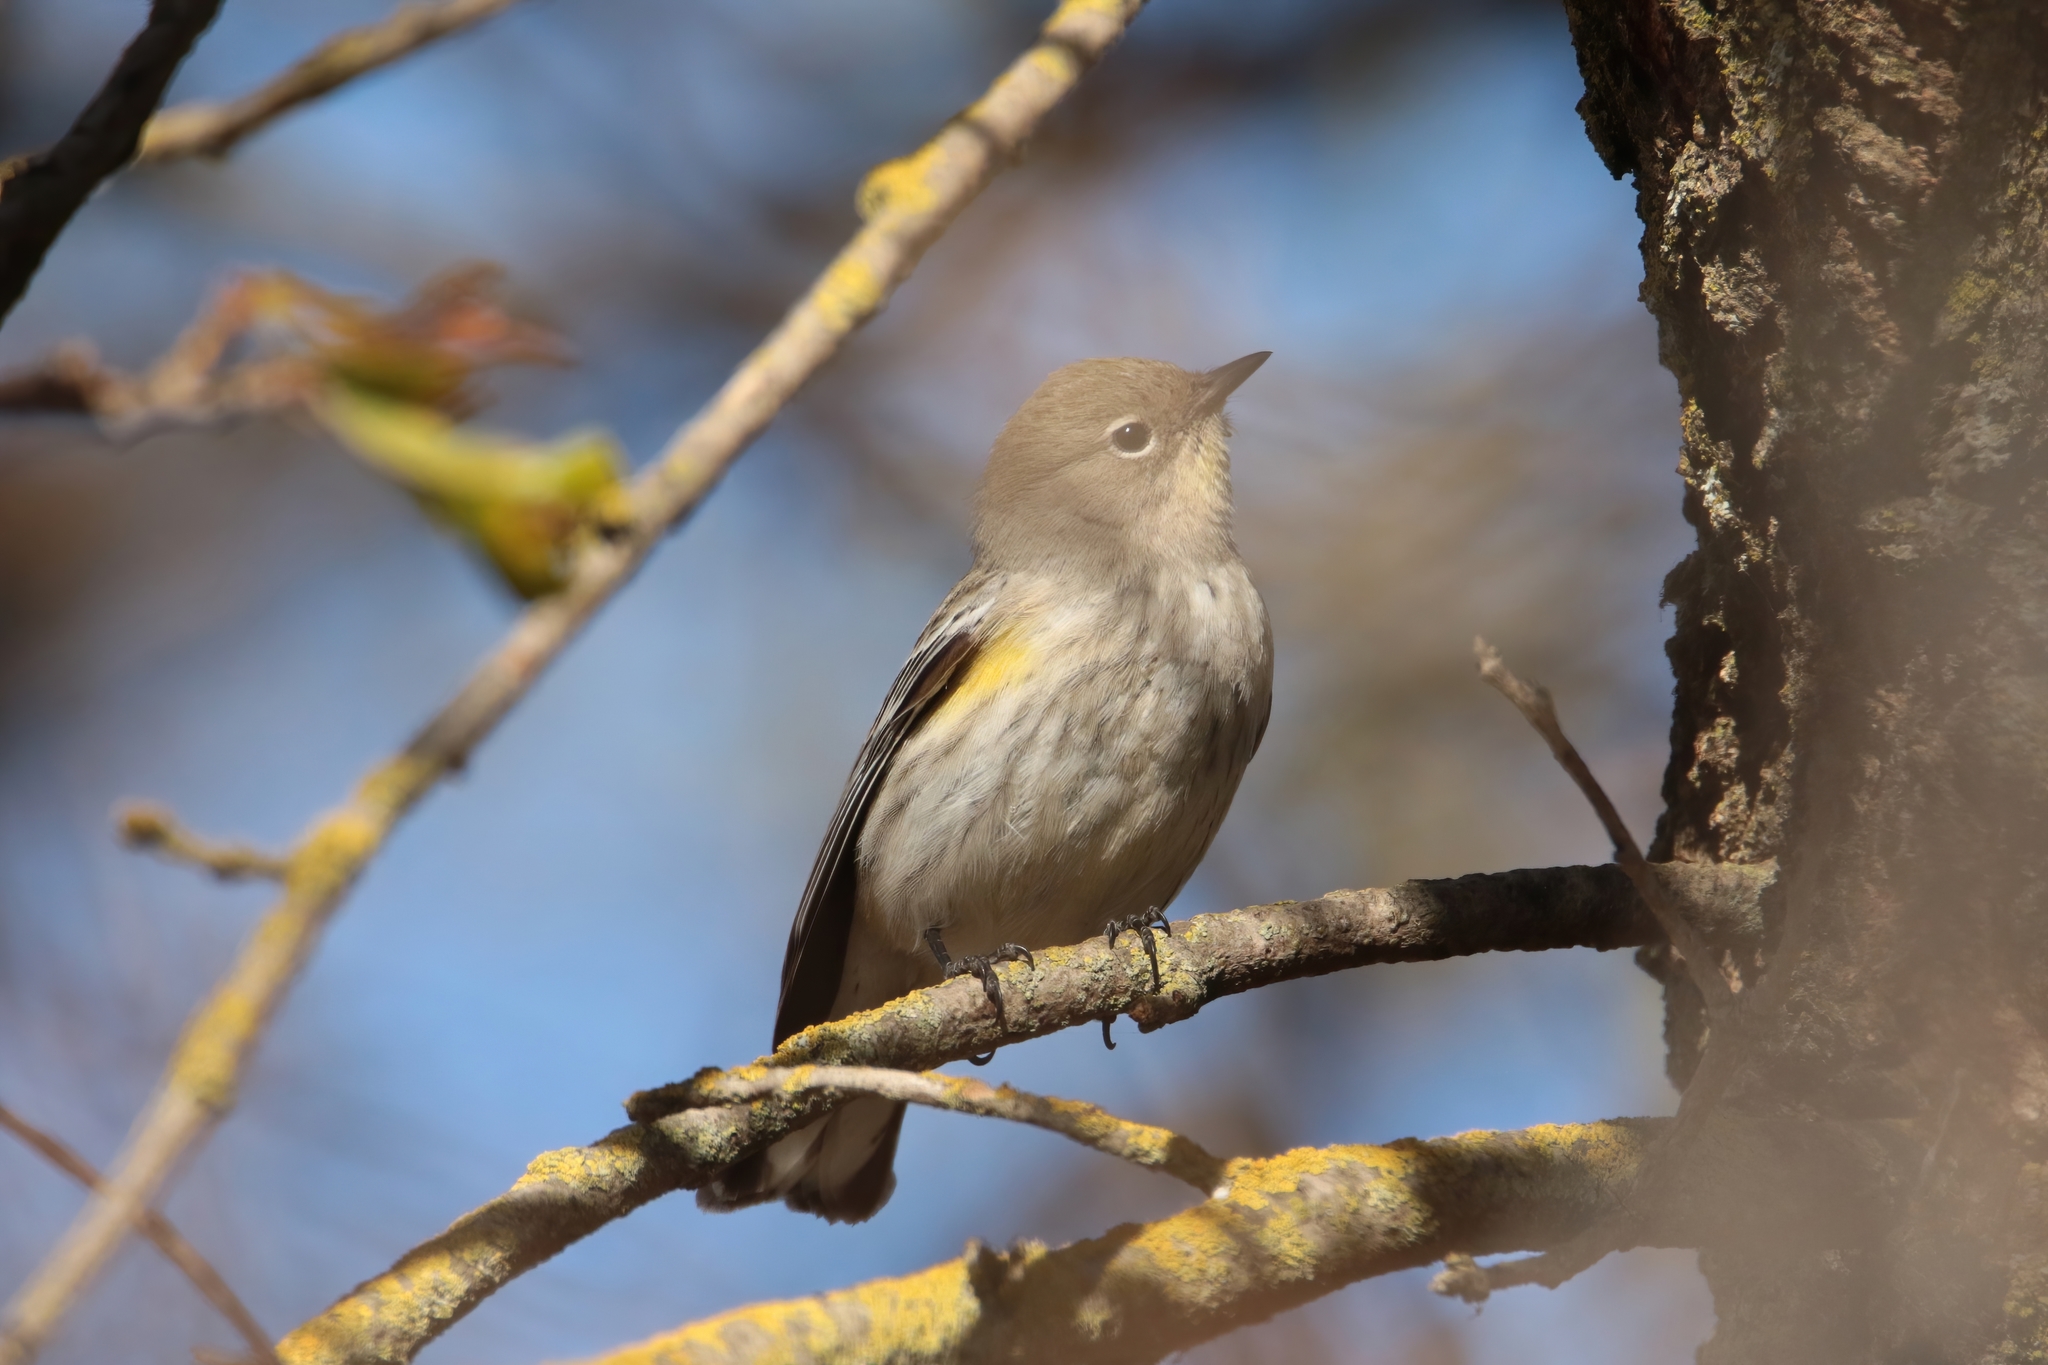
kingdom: Animalia
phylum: Chordata
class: Aves
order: Passeriformes
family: Parulidae
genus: Setophaga
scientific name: Setophaga coronata
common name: Myrtle warbler
